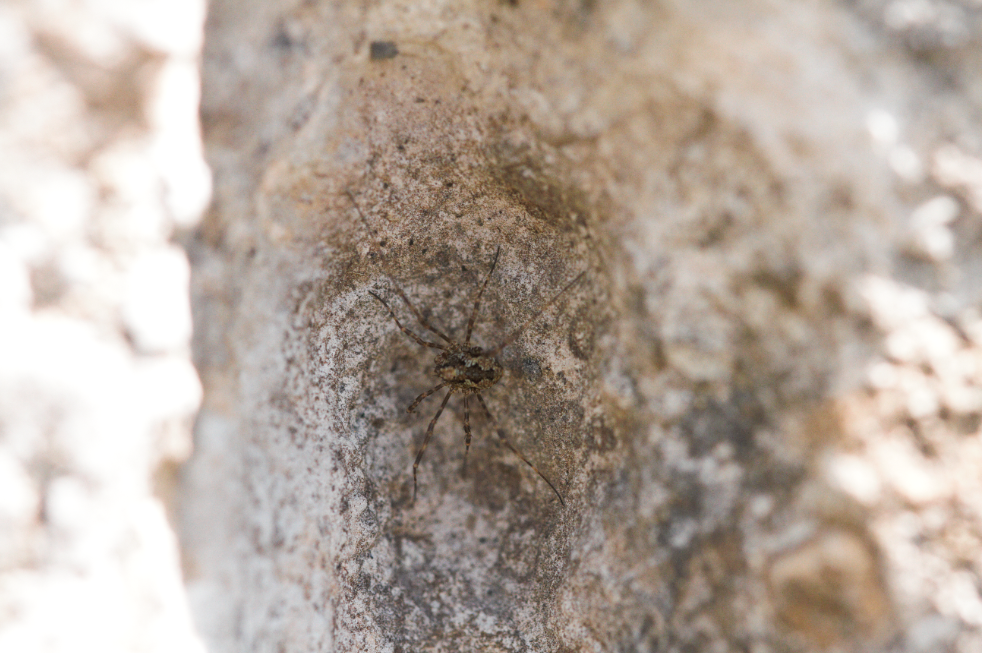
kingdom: Animalia
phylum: Arthropoda
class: Arachnida
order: Opiliones
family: Phalangiidae
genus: Megabunus
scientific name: Megabunus diadema
